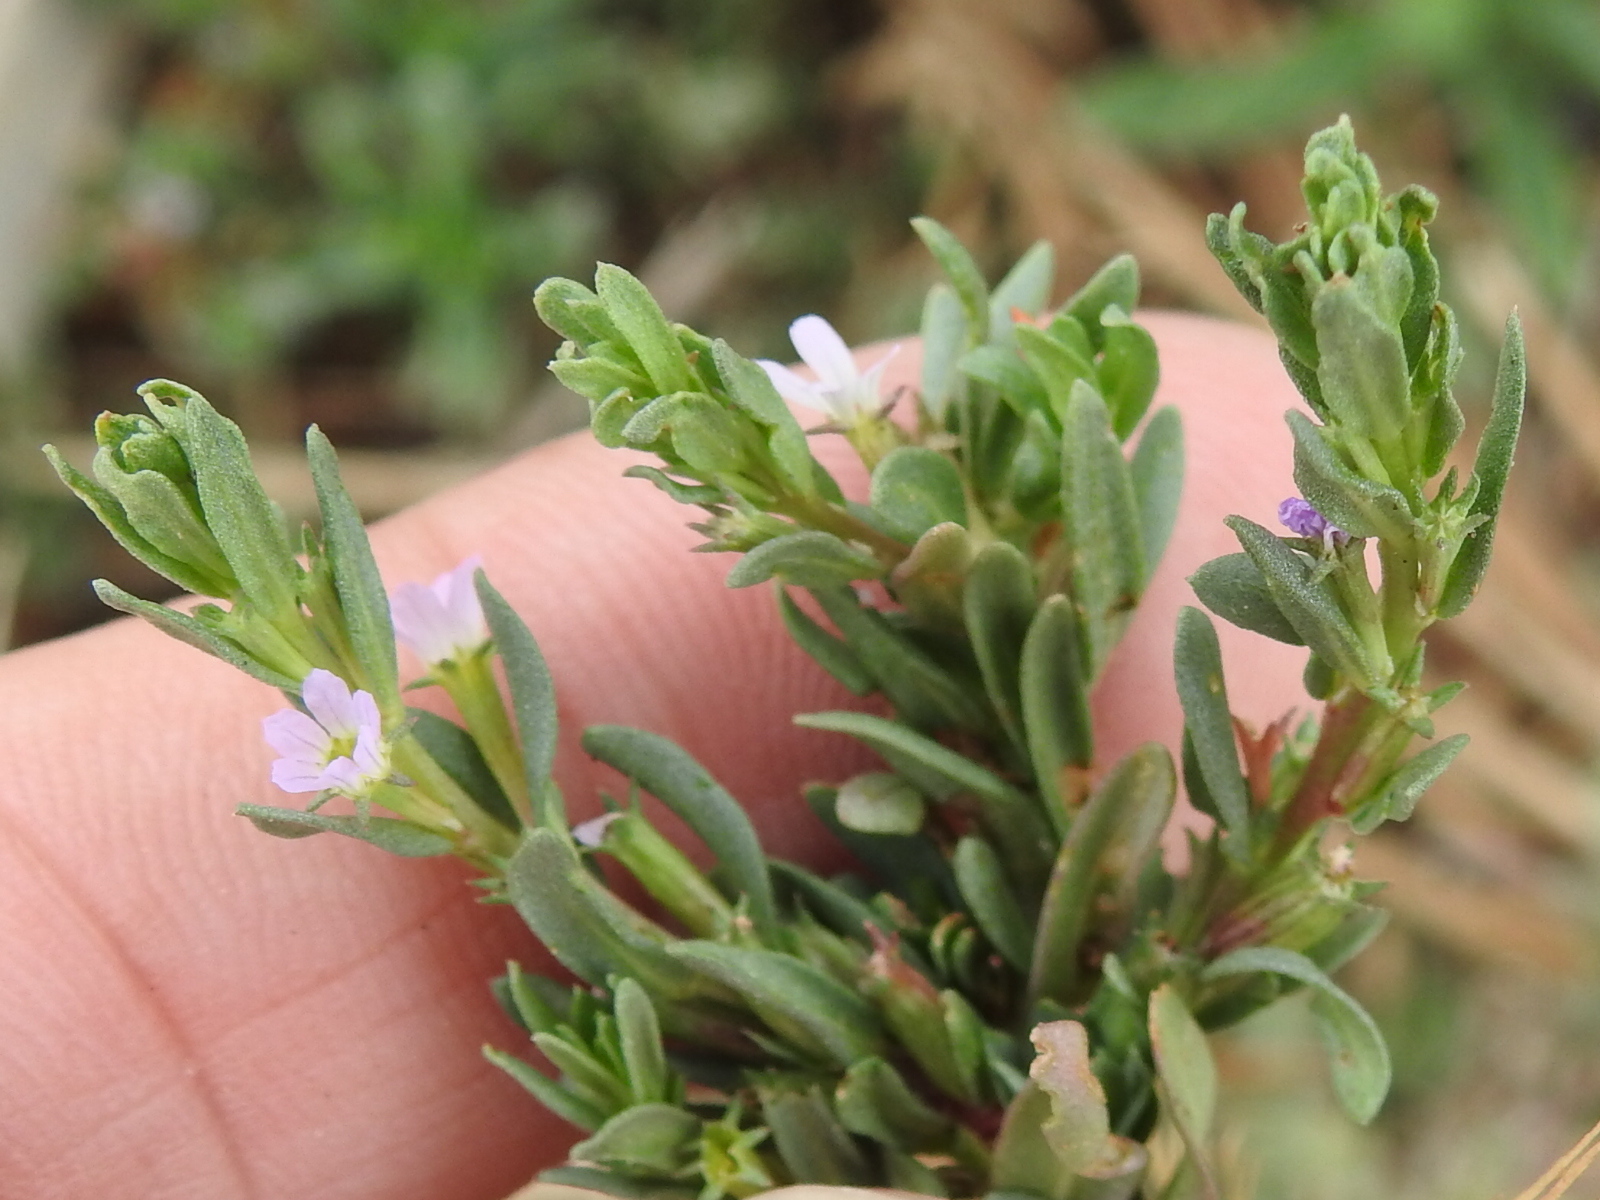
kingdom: Plantae
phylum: Tracheophyta
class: Magnoliopsida
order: Myrtales
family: Lythraceae
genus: Lythrum
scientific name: Lythrum hyssopifolia
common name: Grass-poly
